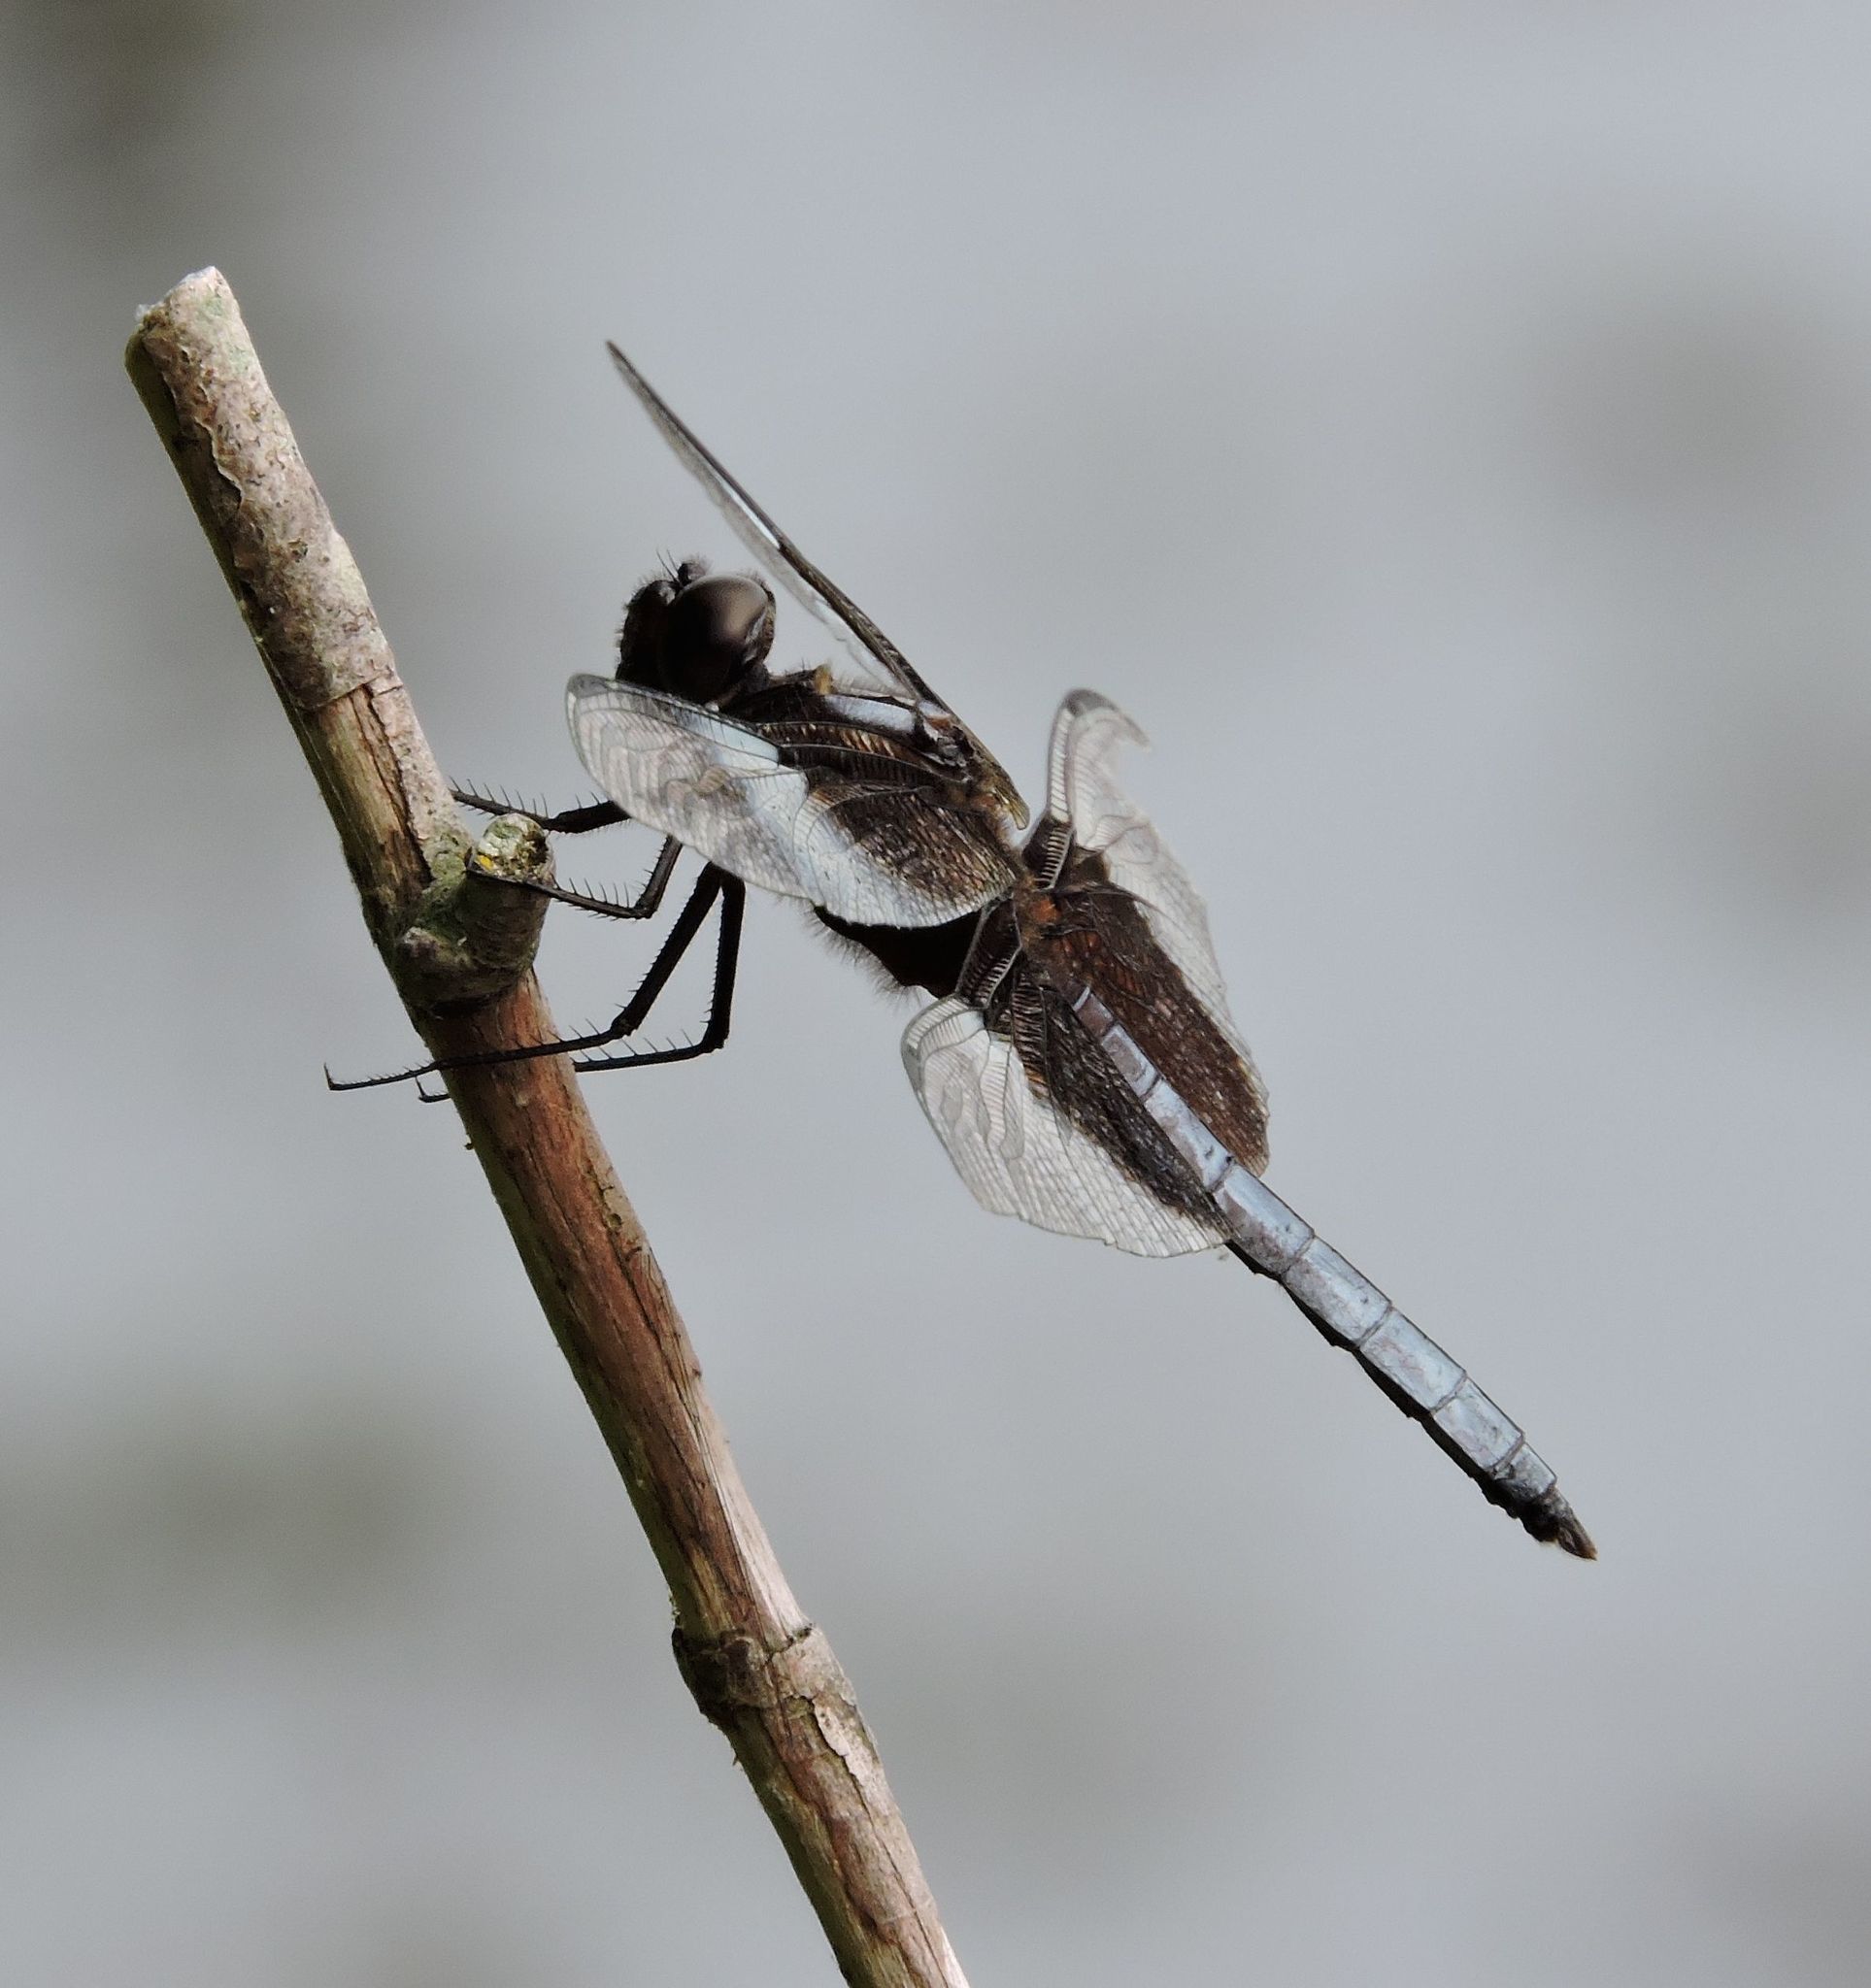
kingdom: Animalia
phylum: Arthropoda
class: Insecta
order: Odonata
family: Libellulidae
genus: Libellula
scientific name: Libellula luctuosa
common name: Widow skimmer
